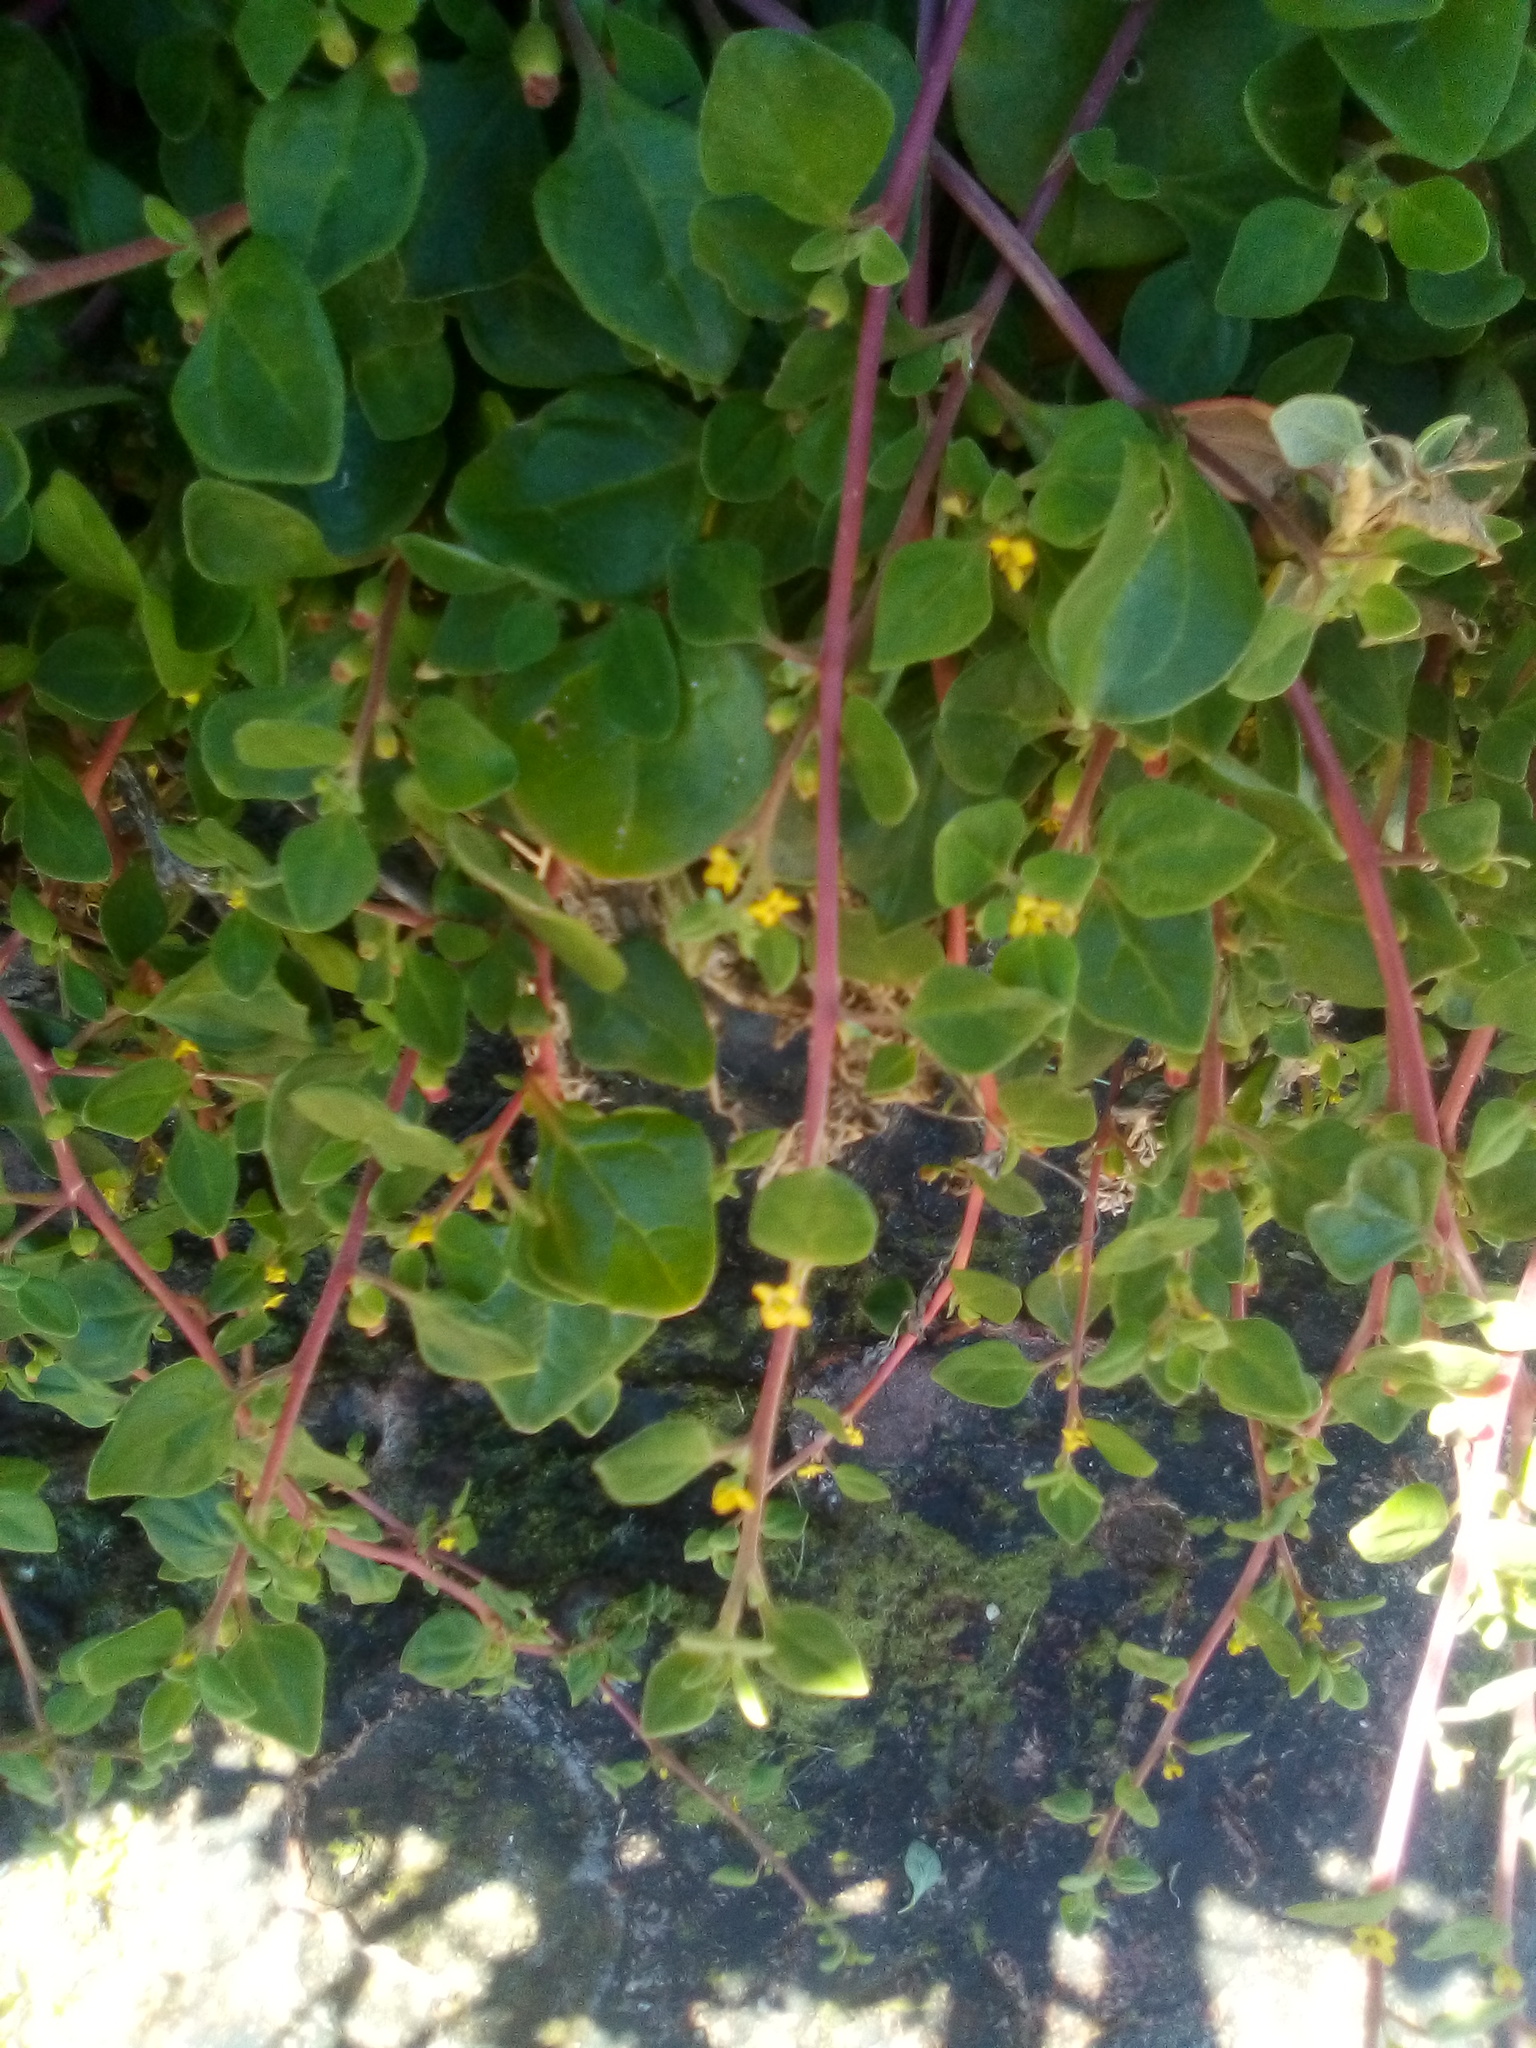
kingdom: Plantae
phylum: Tracheophyta
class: Magnoliopsida
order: Caryophyllales
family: Aizoaceae
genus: Tetragonia
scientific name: Tetragonia implexicoma
